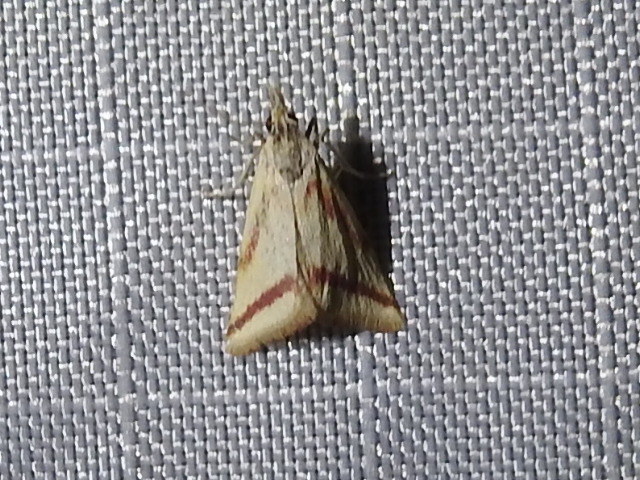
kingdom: Animalia
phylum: Arthropoda
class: Insecta
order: Lepidoptera
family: Crambidae
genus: Microtheoris
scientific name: Microtheoris vibicalis
